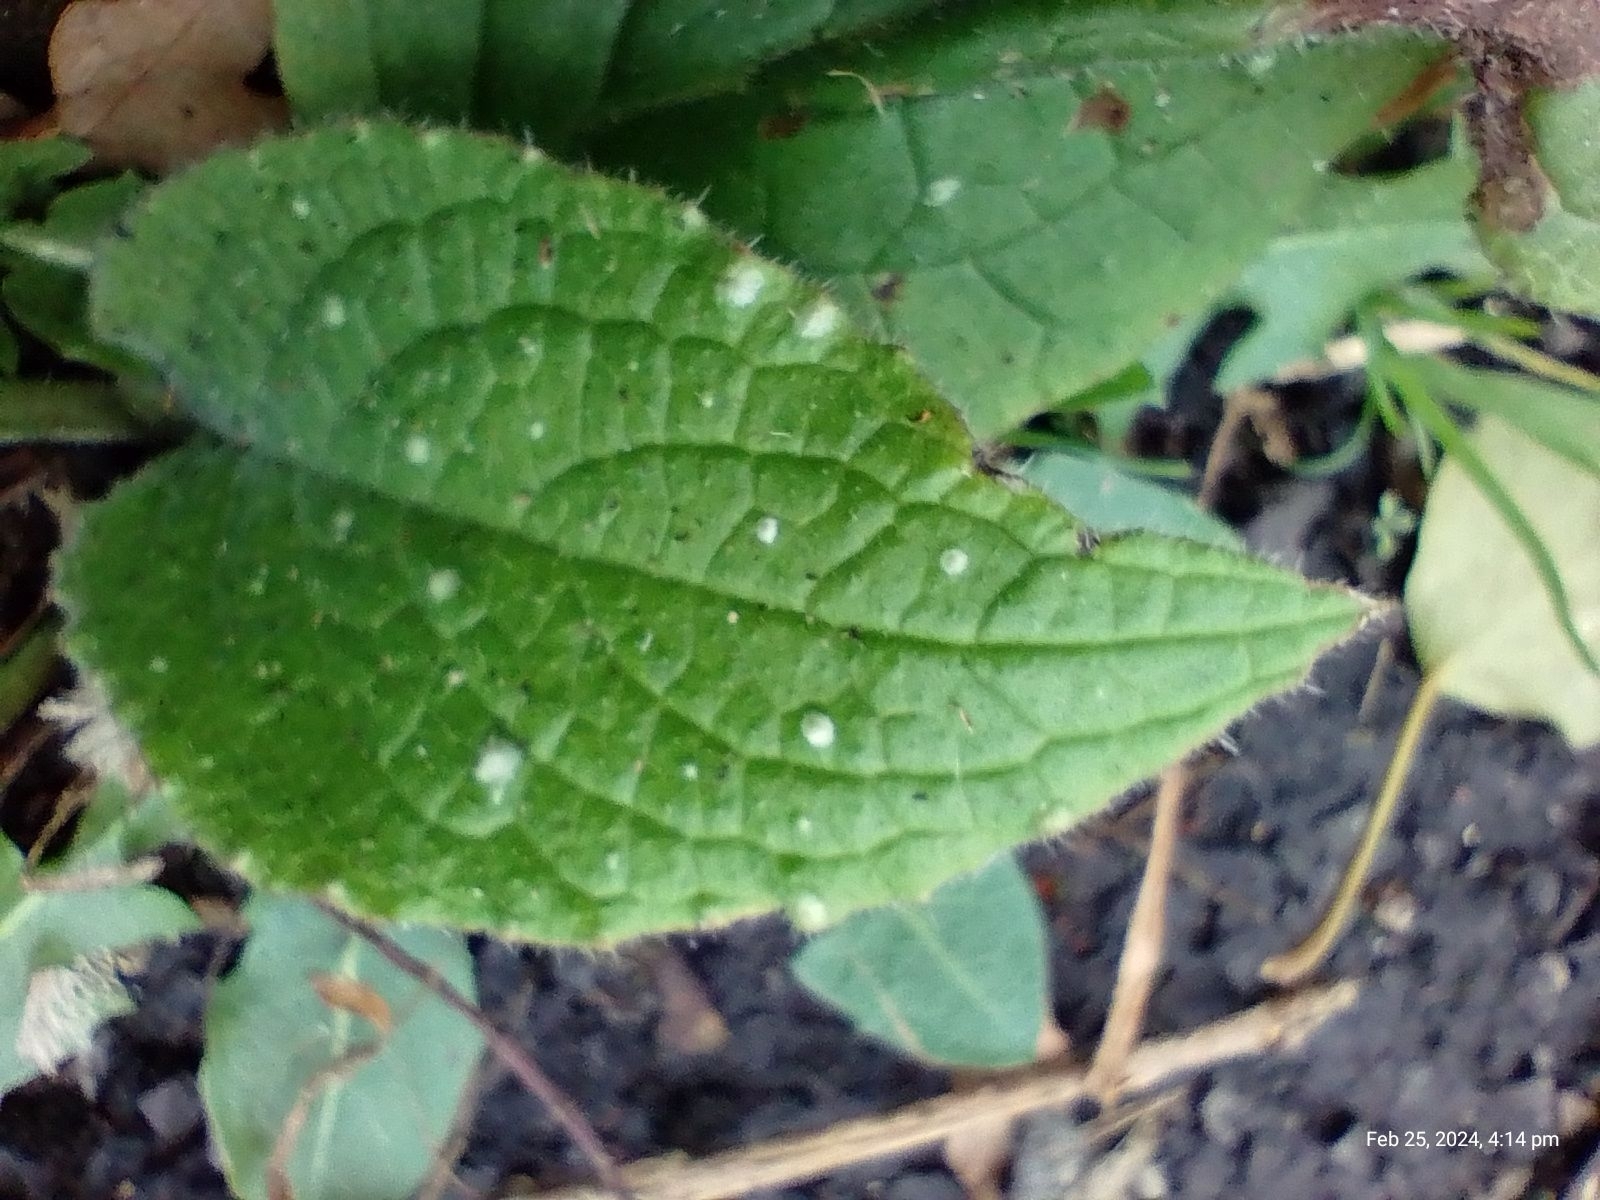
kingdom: Plantae
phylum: Tracheophyta
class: Magnoliopsida
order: Boraginales
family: Boraginaceae
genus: Pentaglottis
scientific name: Pentaglottis sempervirens
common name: Green alkanet
